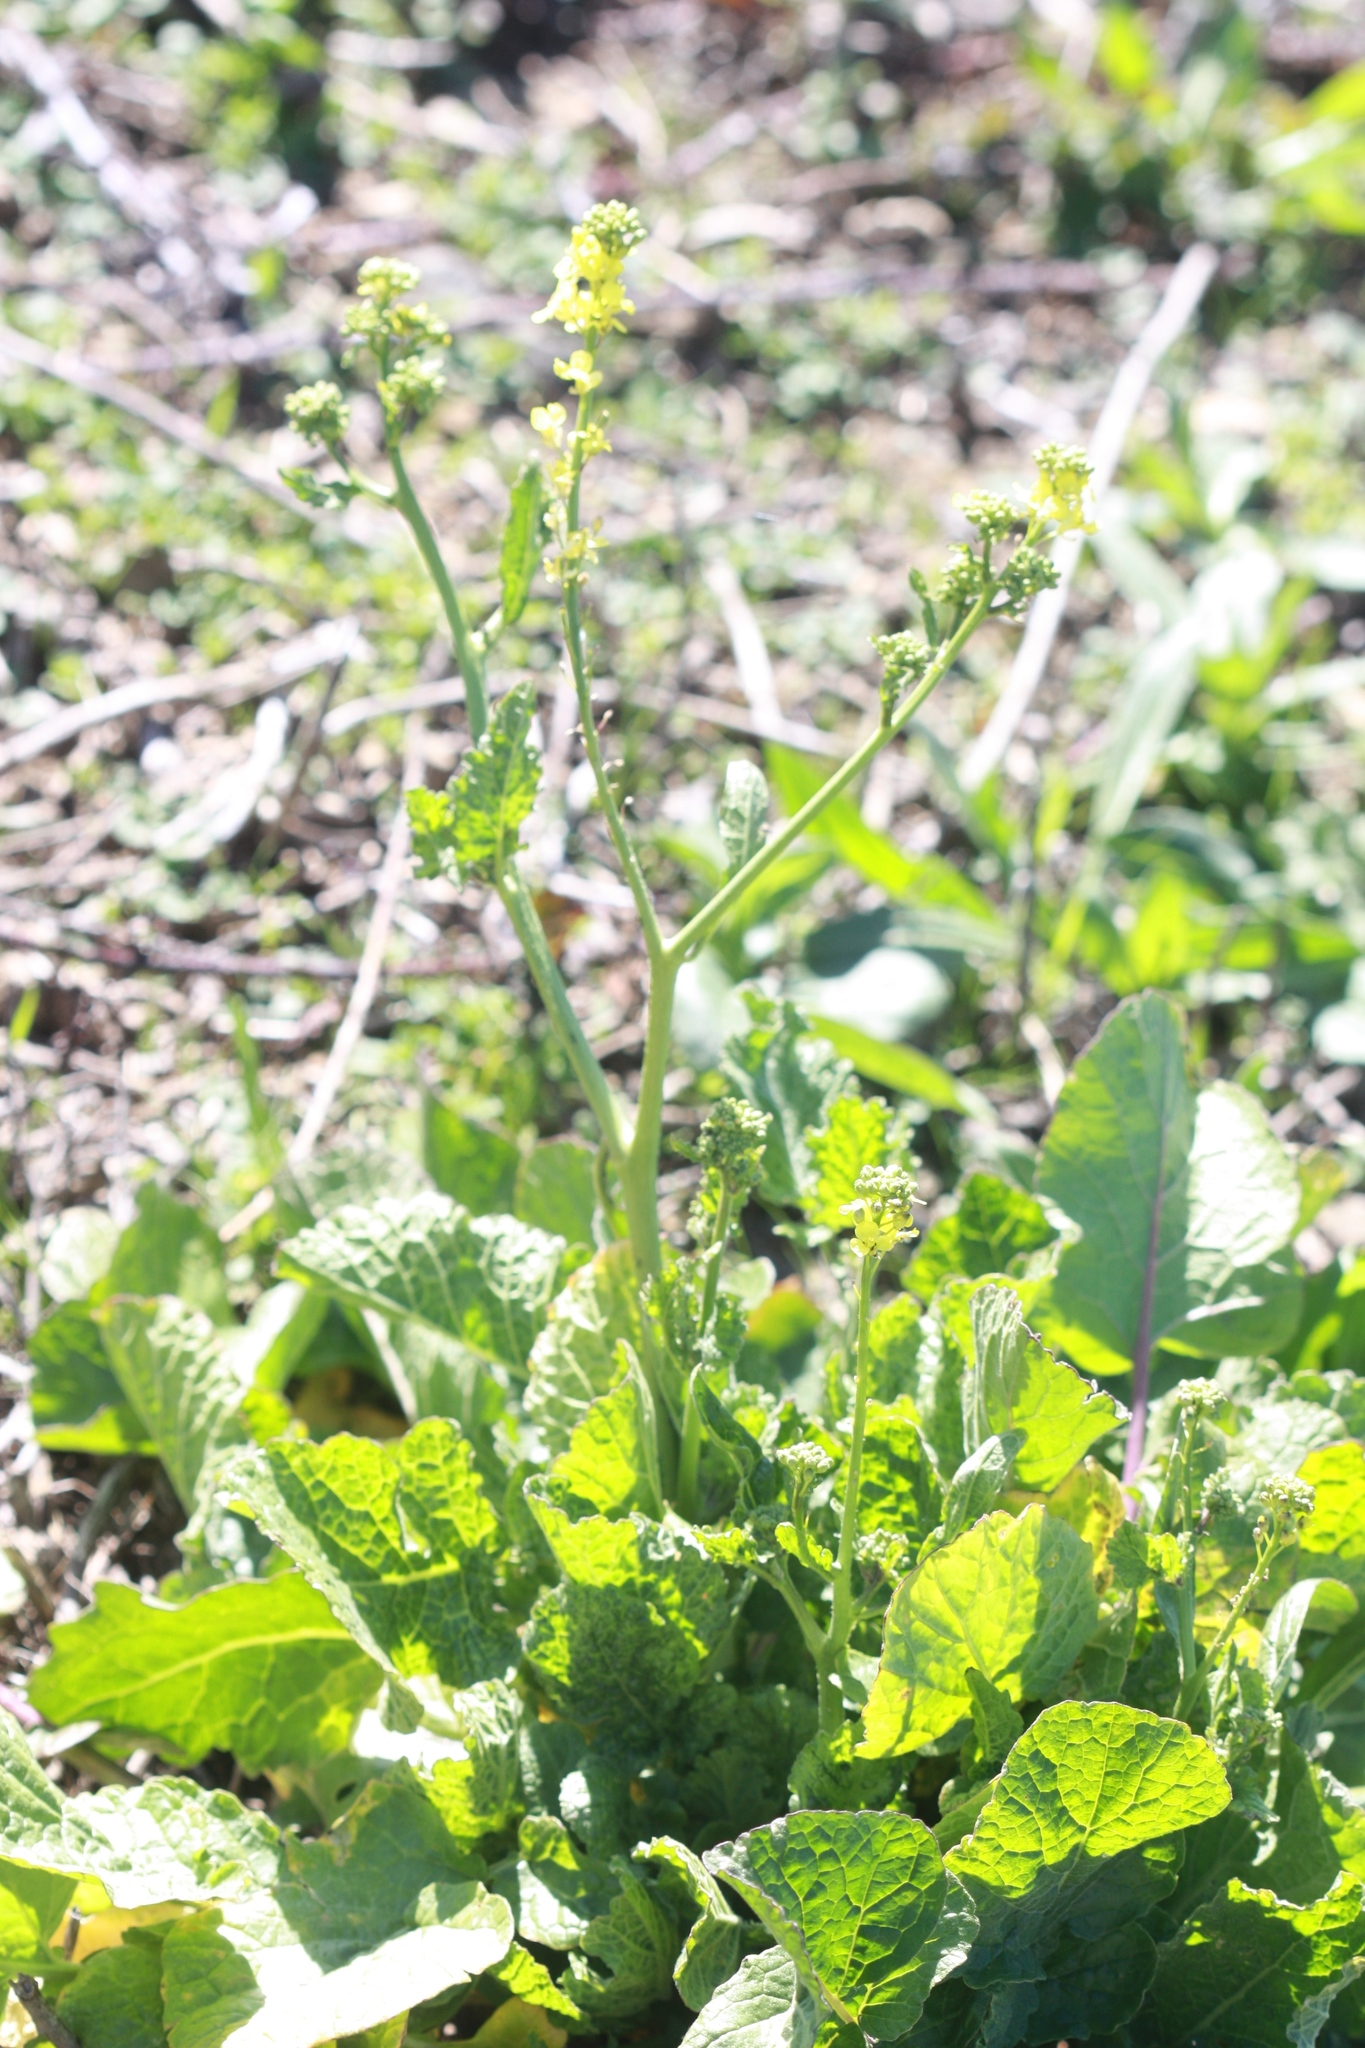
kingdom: Plantae
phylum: Tracheophyta
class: Magnoliopsida
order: Brassicales
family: Brassicaceae
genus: Hirschfeldia
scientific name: Hirschfeldia incana
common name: Hoary mustard
